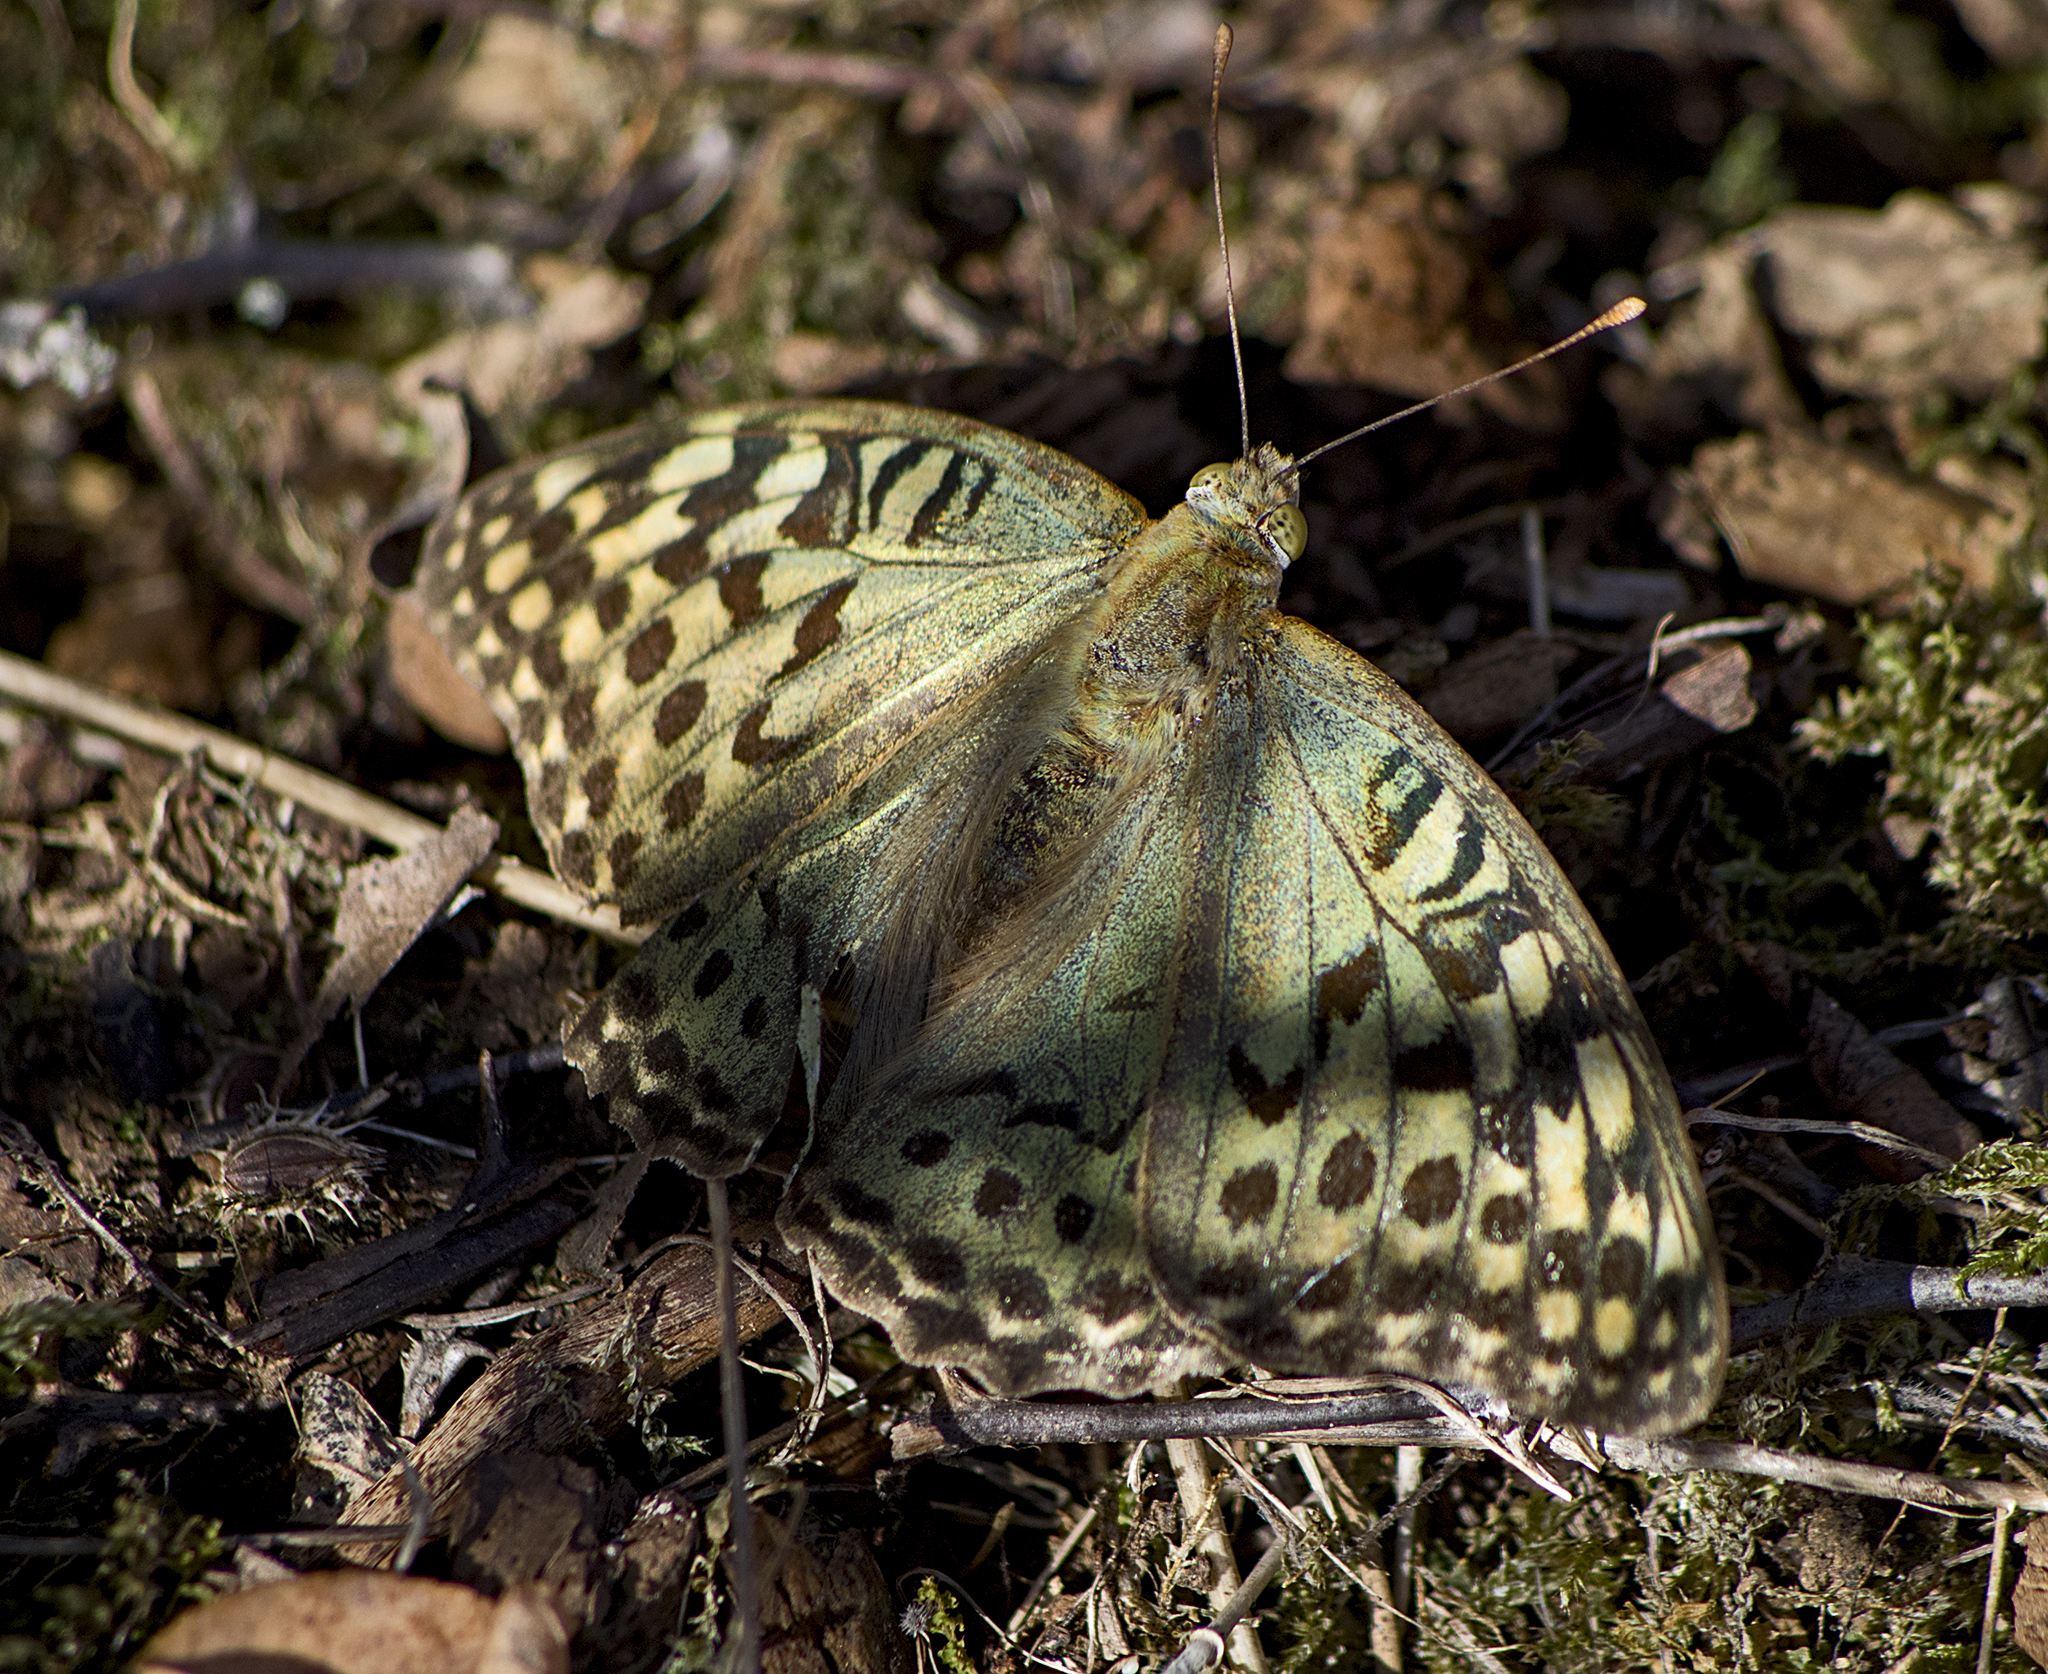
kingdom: Animalia
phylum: Arthropoda
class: Insecta
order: Lepidoptera
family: Nymphalidae
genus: Damora
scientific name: Damora pandora
